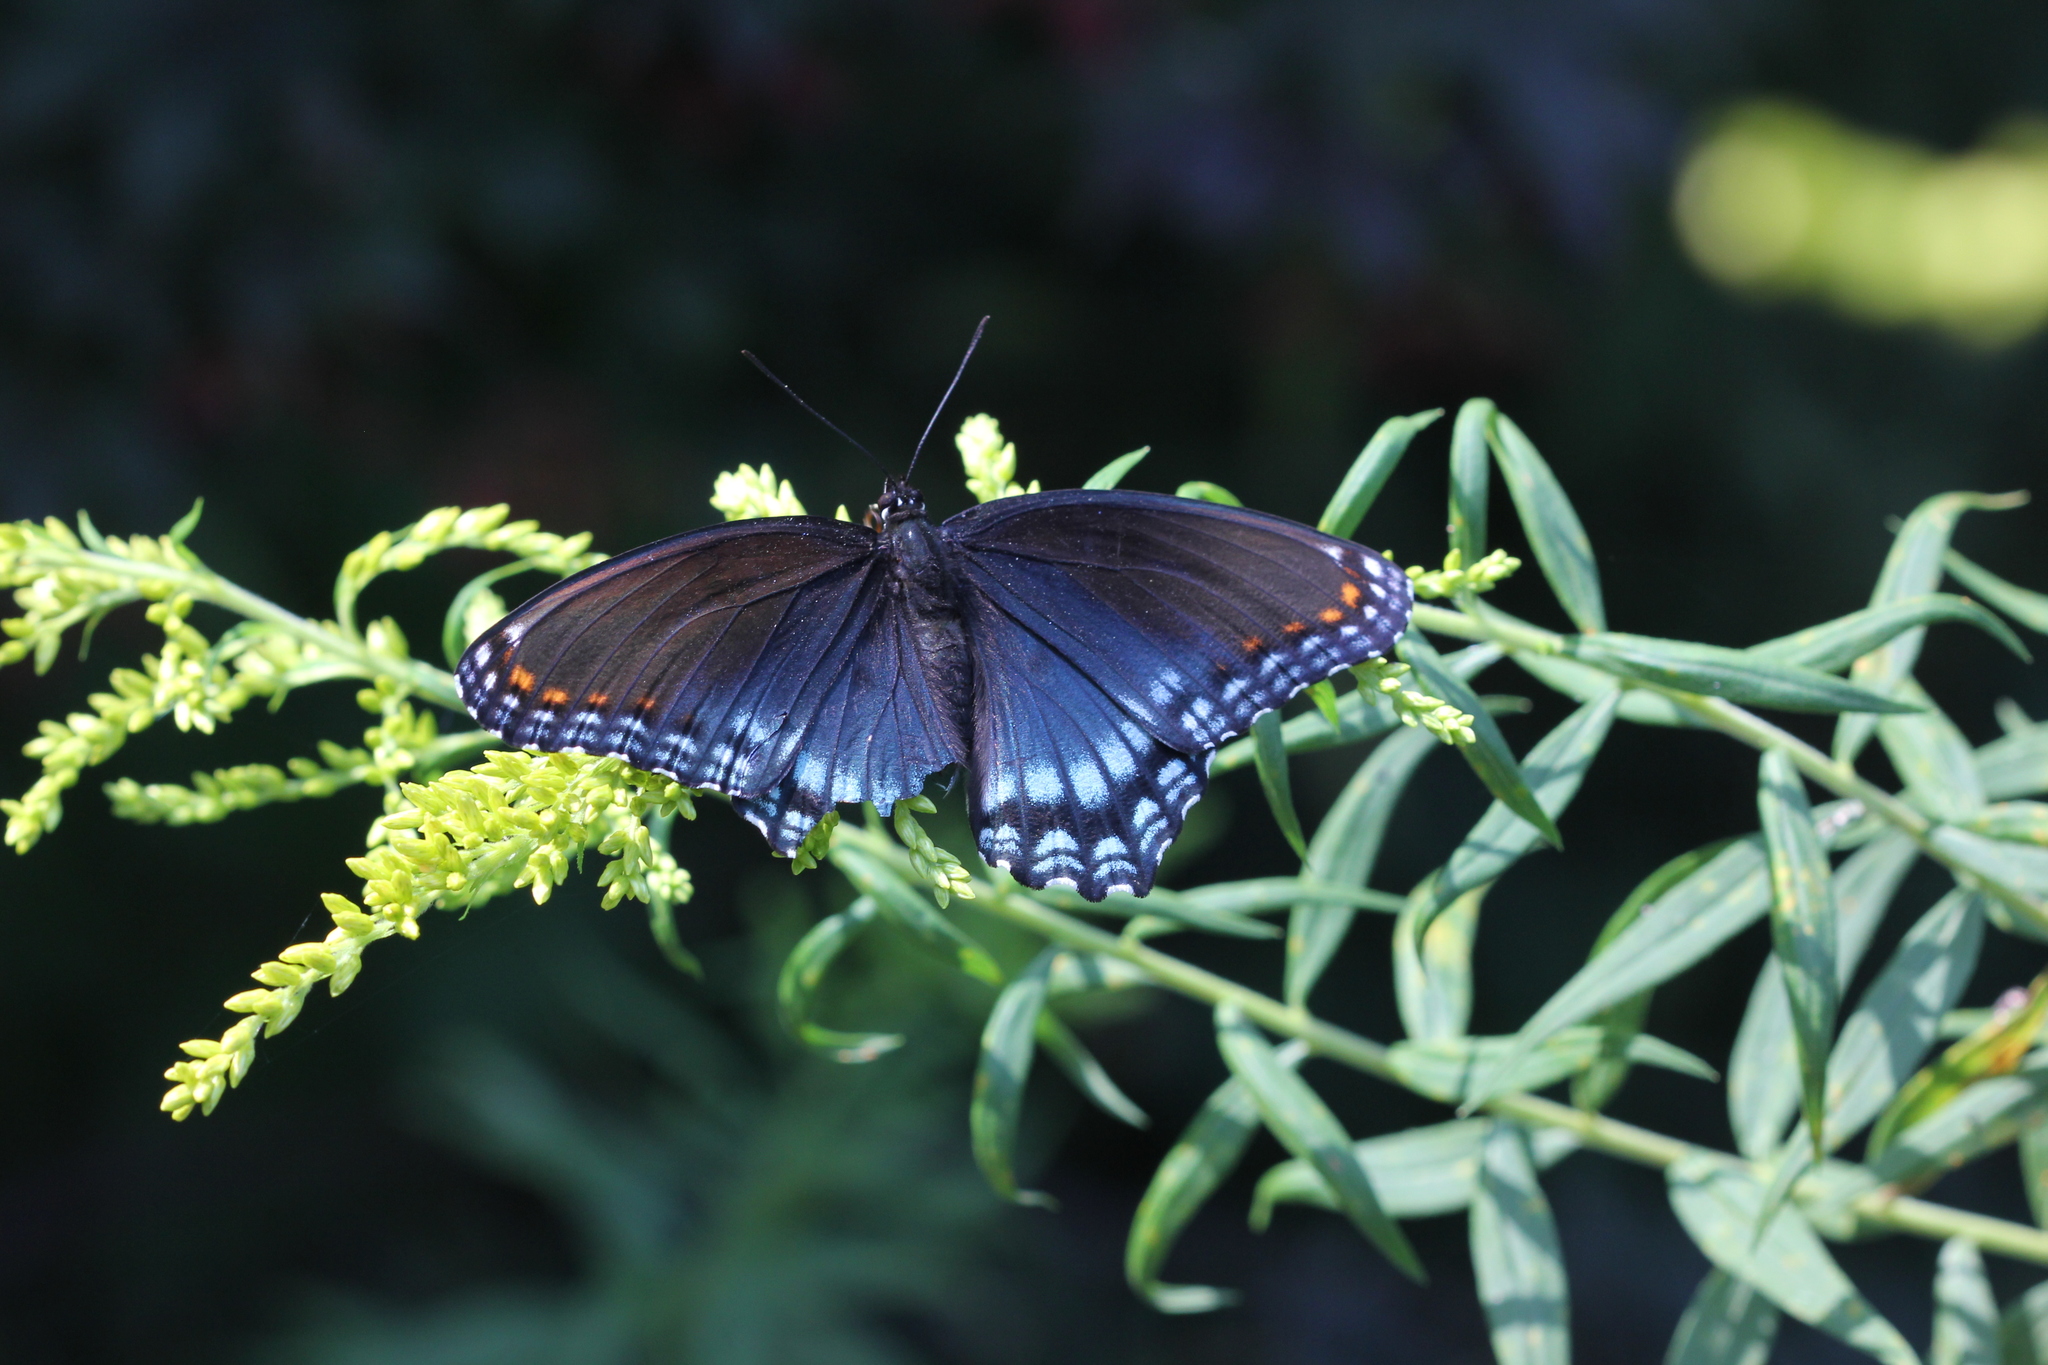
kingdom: Animalia
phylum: Arthropoda
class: Insecta
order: Lepidoptera
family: Nymphalidae
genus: Limenitis
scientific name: Limenitis astyanax
